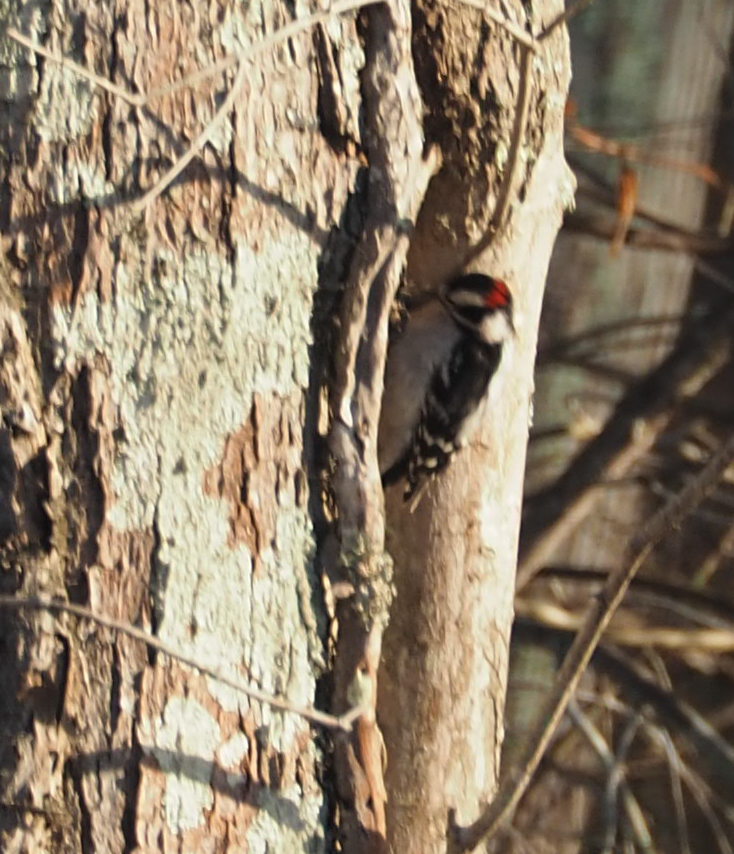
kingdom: Animalia
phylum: Chordata
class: Aves
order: Piciformes
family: Picidae
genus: Dryobates
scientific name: Dryobates pubescens
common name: Downy woodpecker
